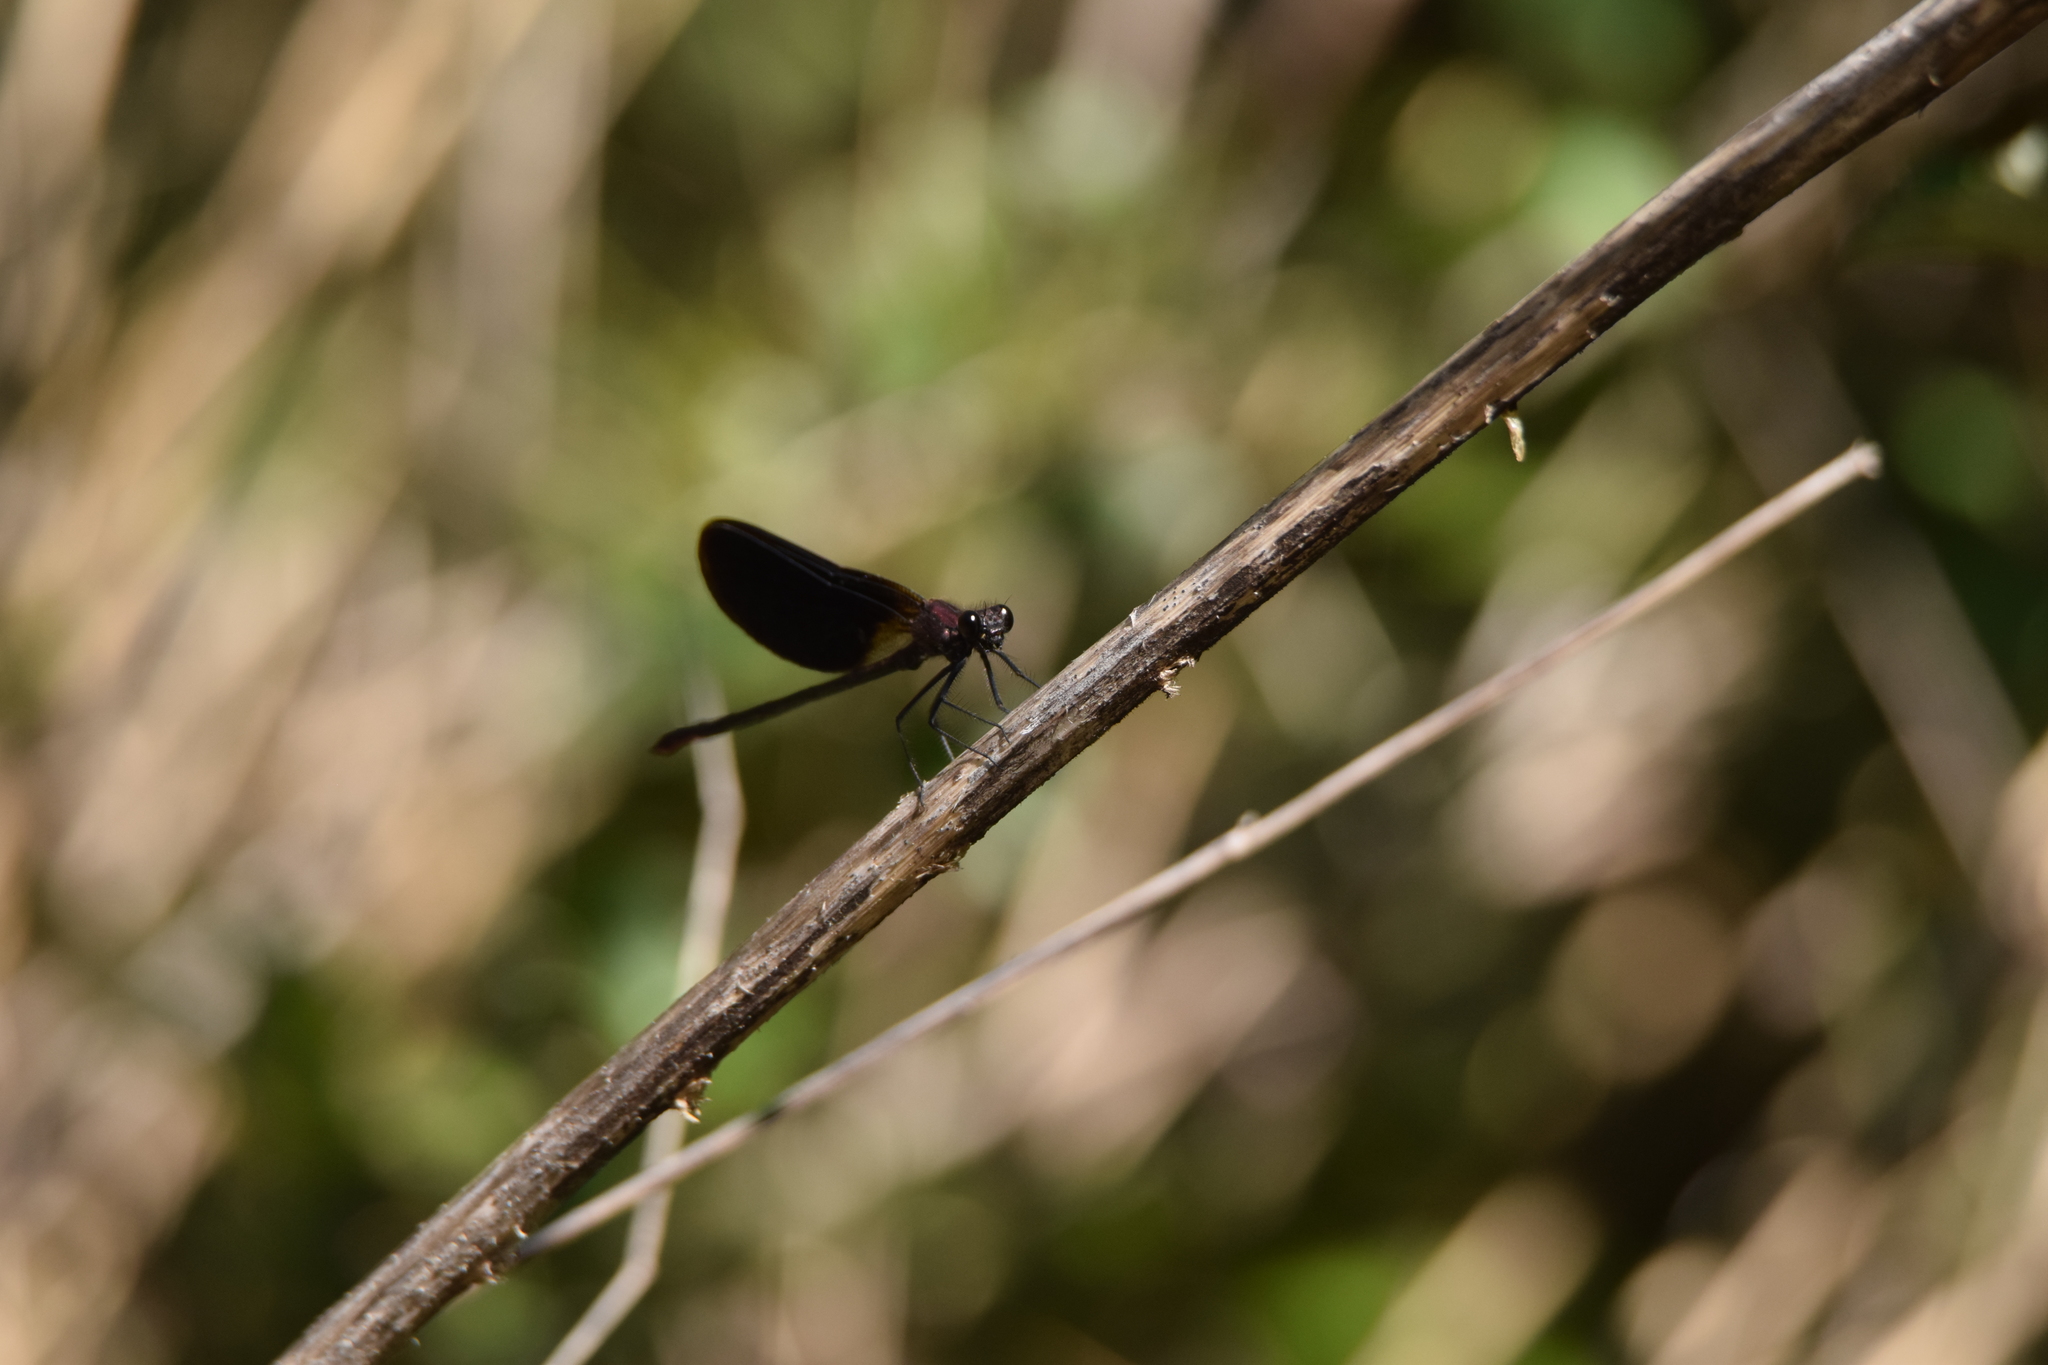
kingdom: Animalia
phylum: Arthropoda
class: Insecta
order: Odonata
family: Calopterygidae
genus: Calopteryx
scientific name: Calopteryx haemorrhoidalis
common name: Copper demoiselle
